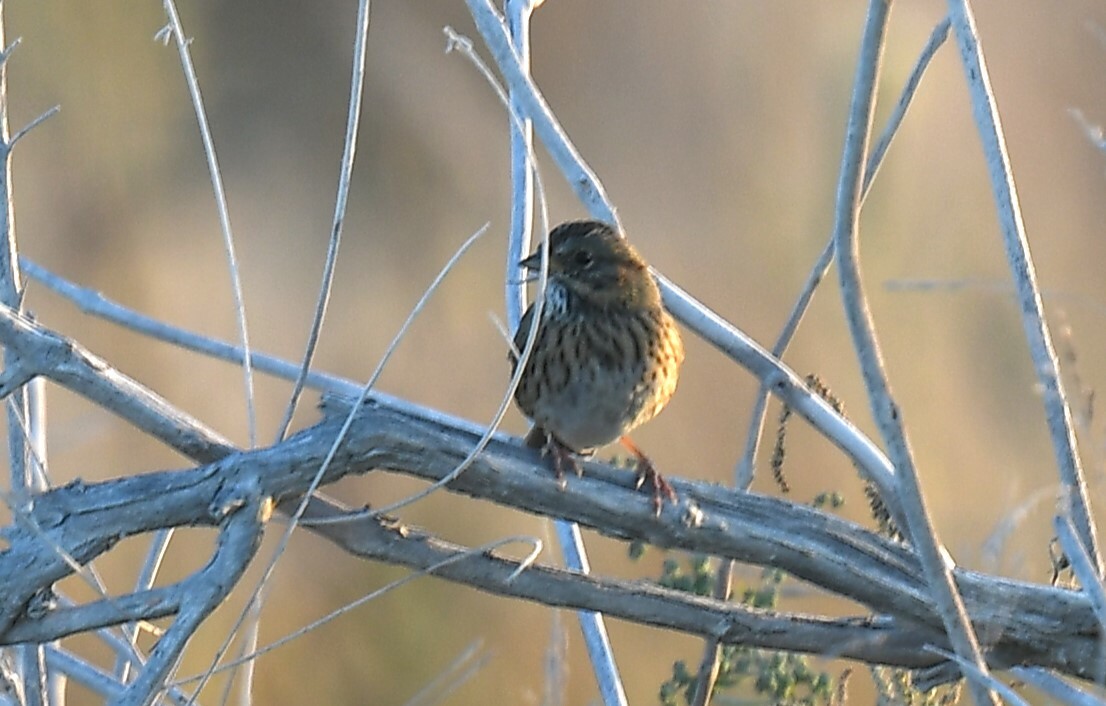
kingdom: Animalia
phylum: Chordata
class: Aves
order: Passeriformes
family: Passerellidae
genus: Melospiza
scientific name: Melospiza lincolnii
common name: Lincoln's sparrow
